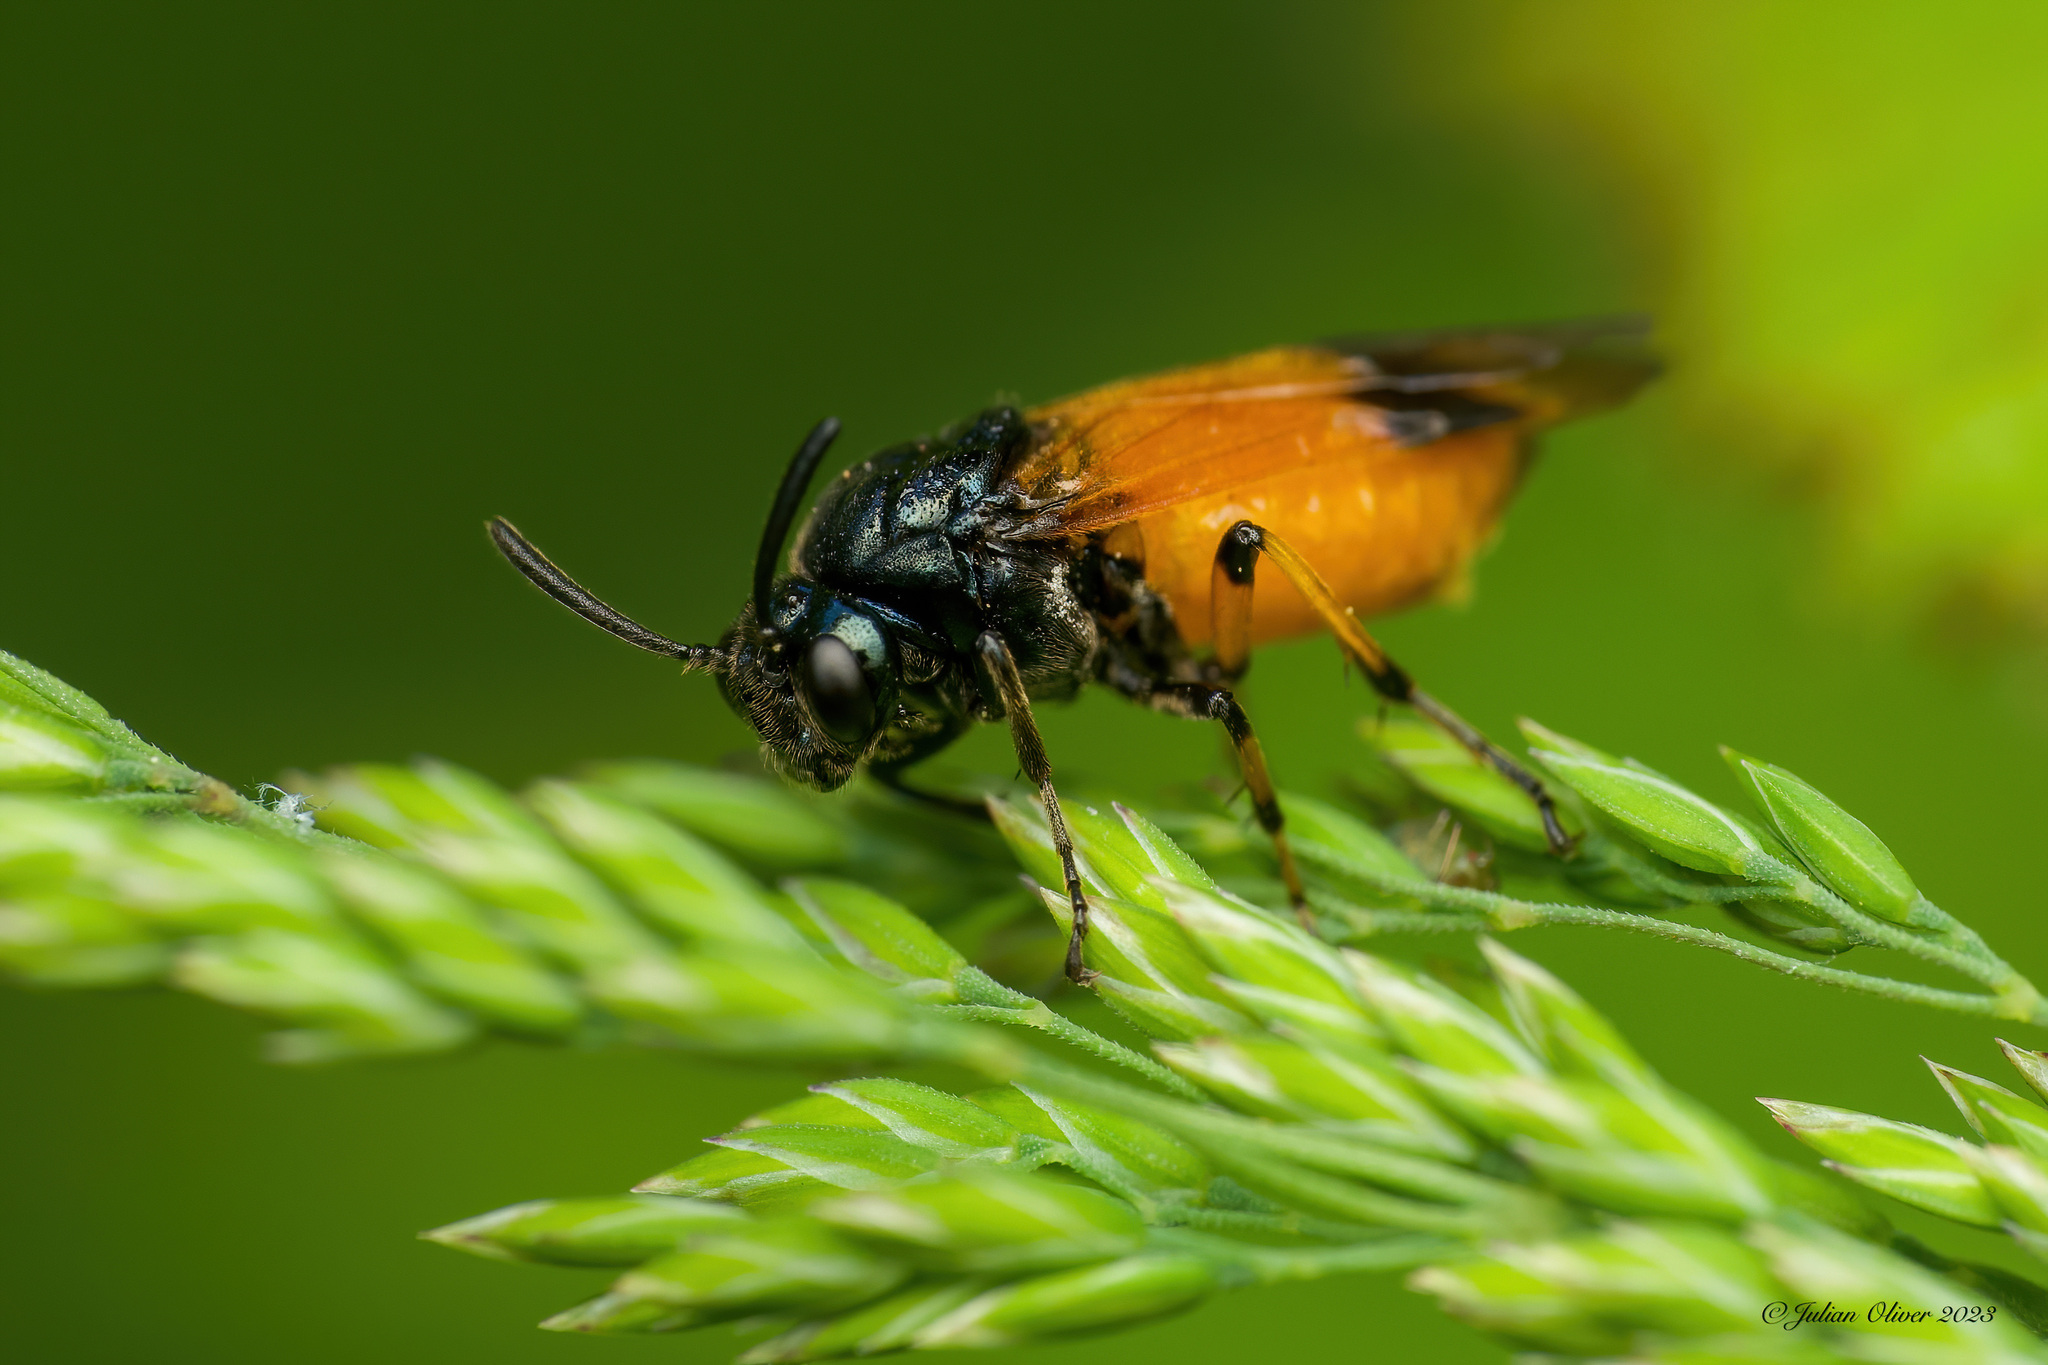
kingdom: Animalia
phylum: Arthropoda
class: Insecta
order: Hymenoptera
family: Argidae
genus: Arge
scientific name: Arge cyanocrocea
